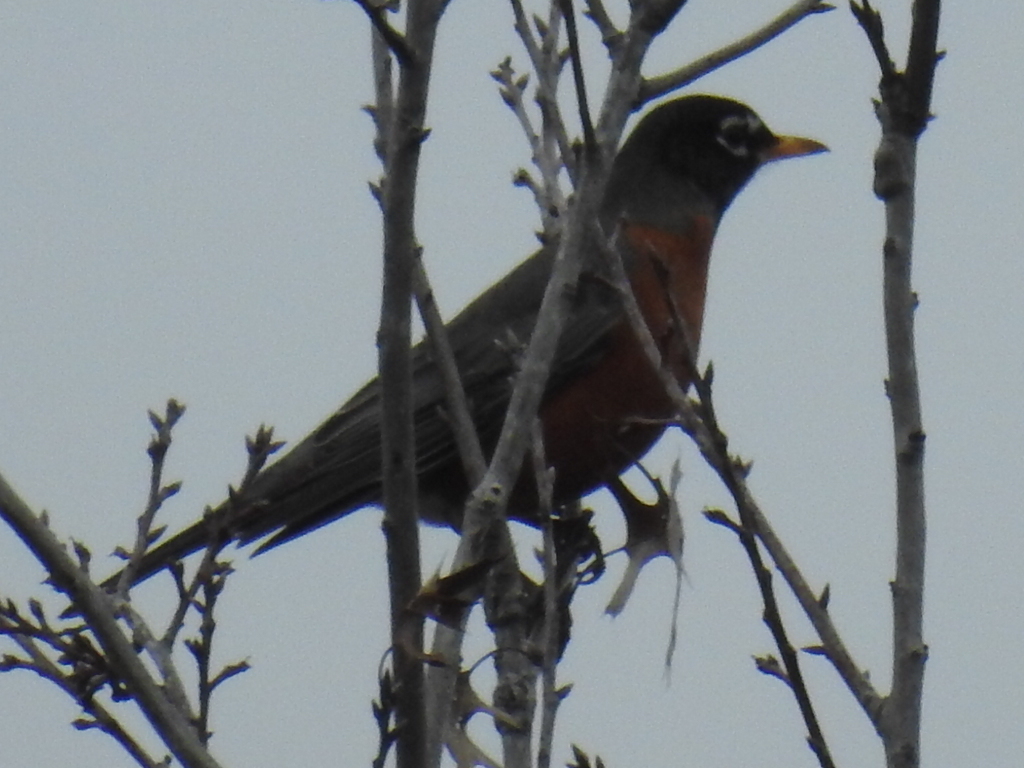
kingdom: Animalia
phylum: Chordata
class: Aves
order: Passeriformes
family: Turdidae
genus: Turdus
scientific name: Turdus migratorius
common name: American robin
